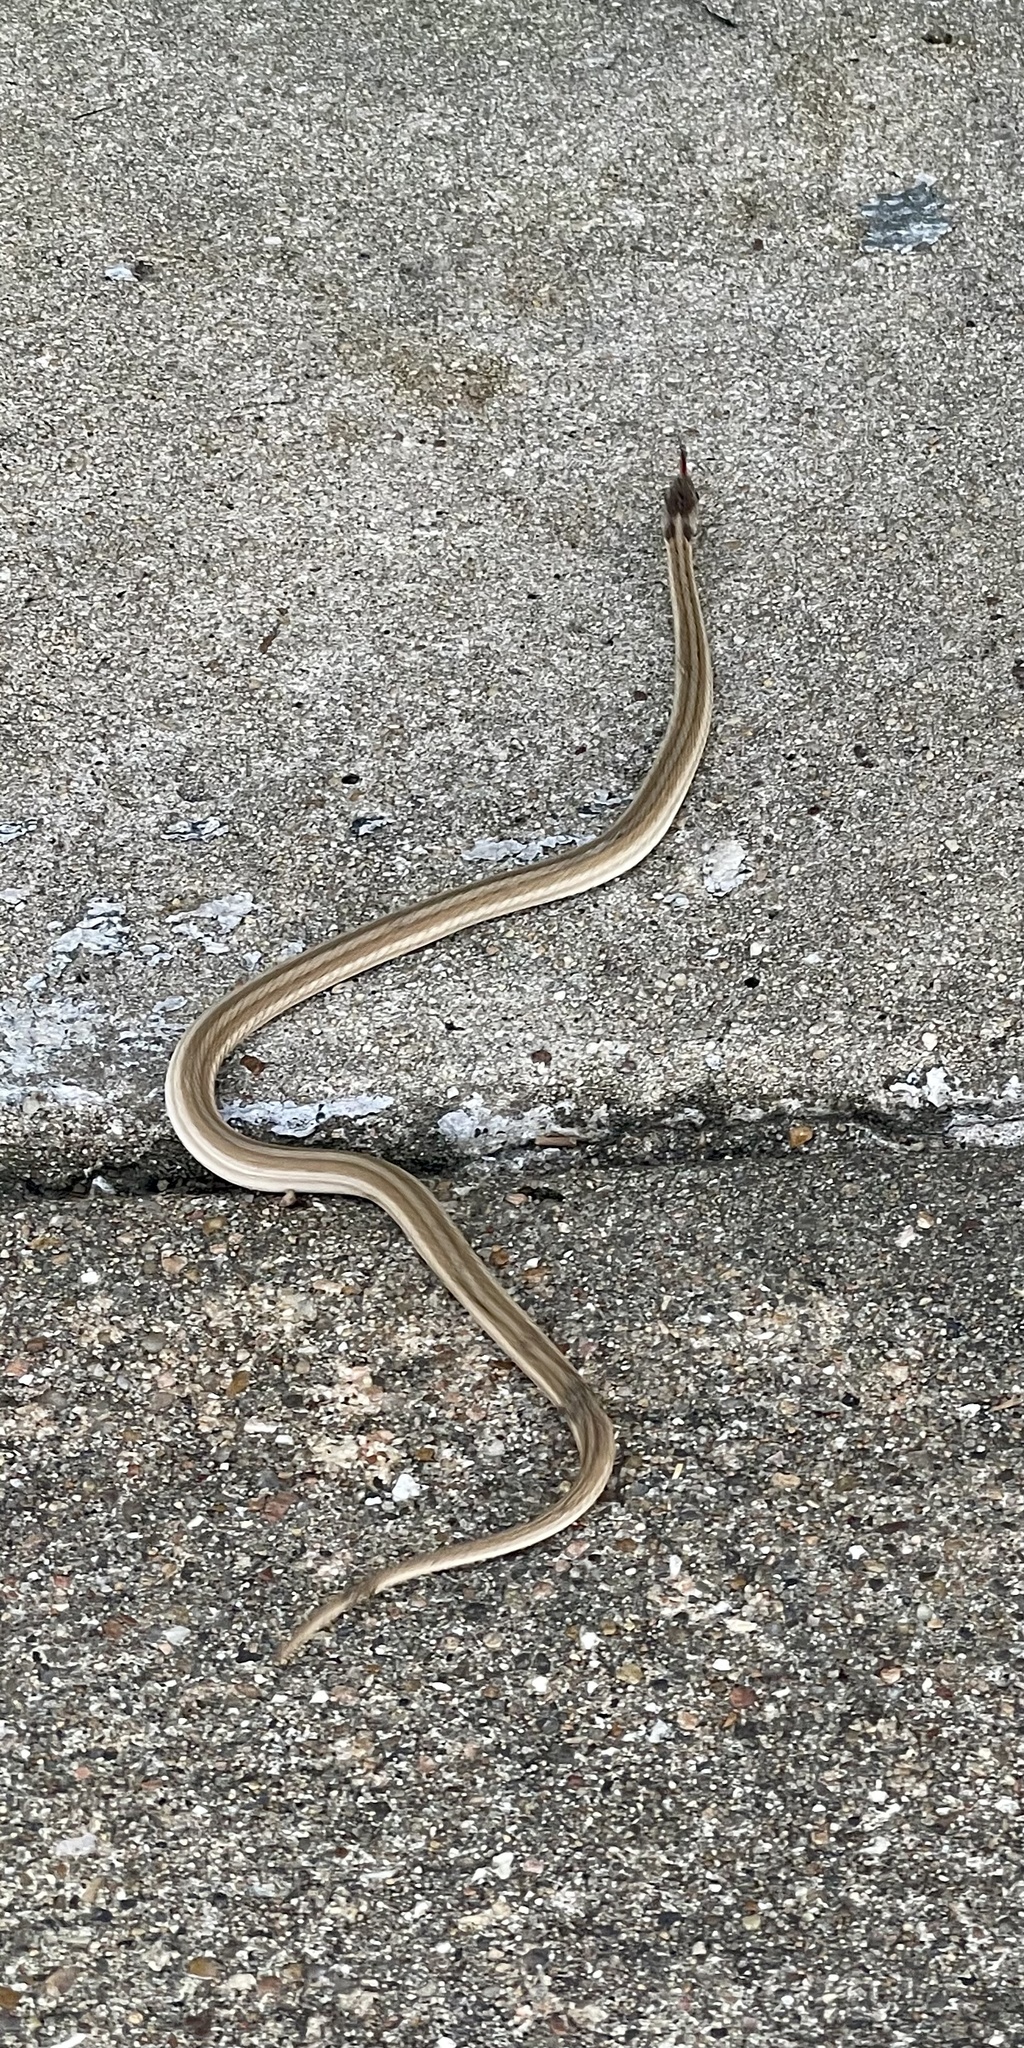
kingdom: Animalia
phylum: Chordata
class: Squamata
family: Colubridae
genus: Storeria
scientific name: Storeria dekayi
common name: (dekay’s) brown snake
